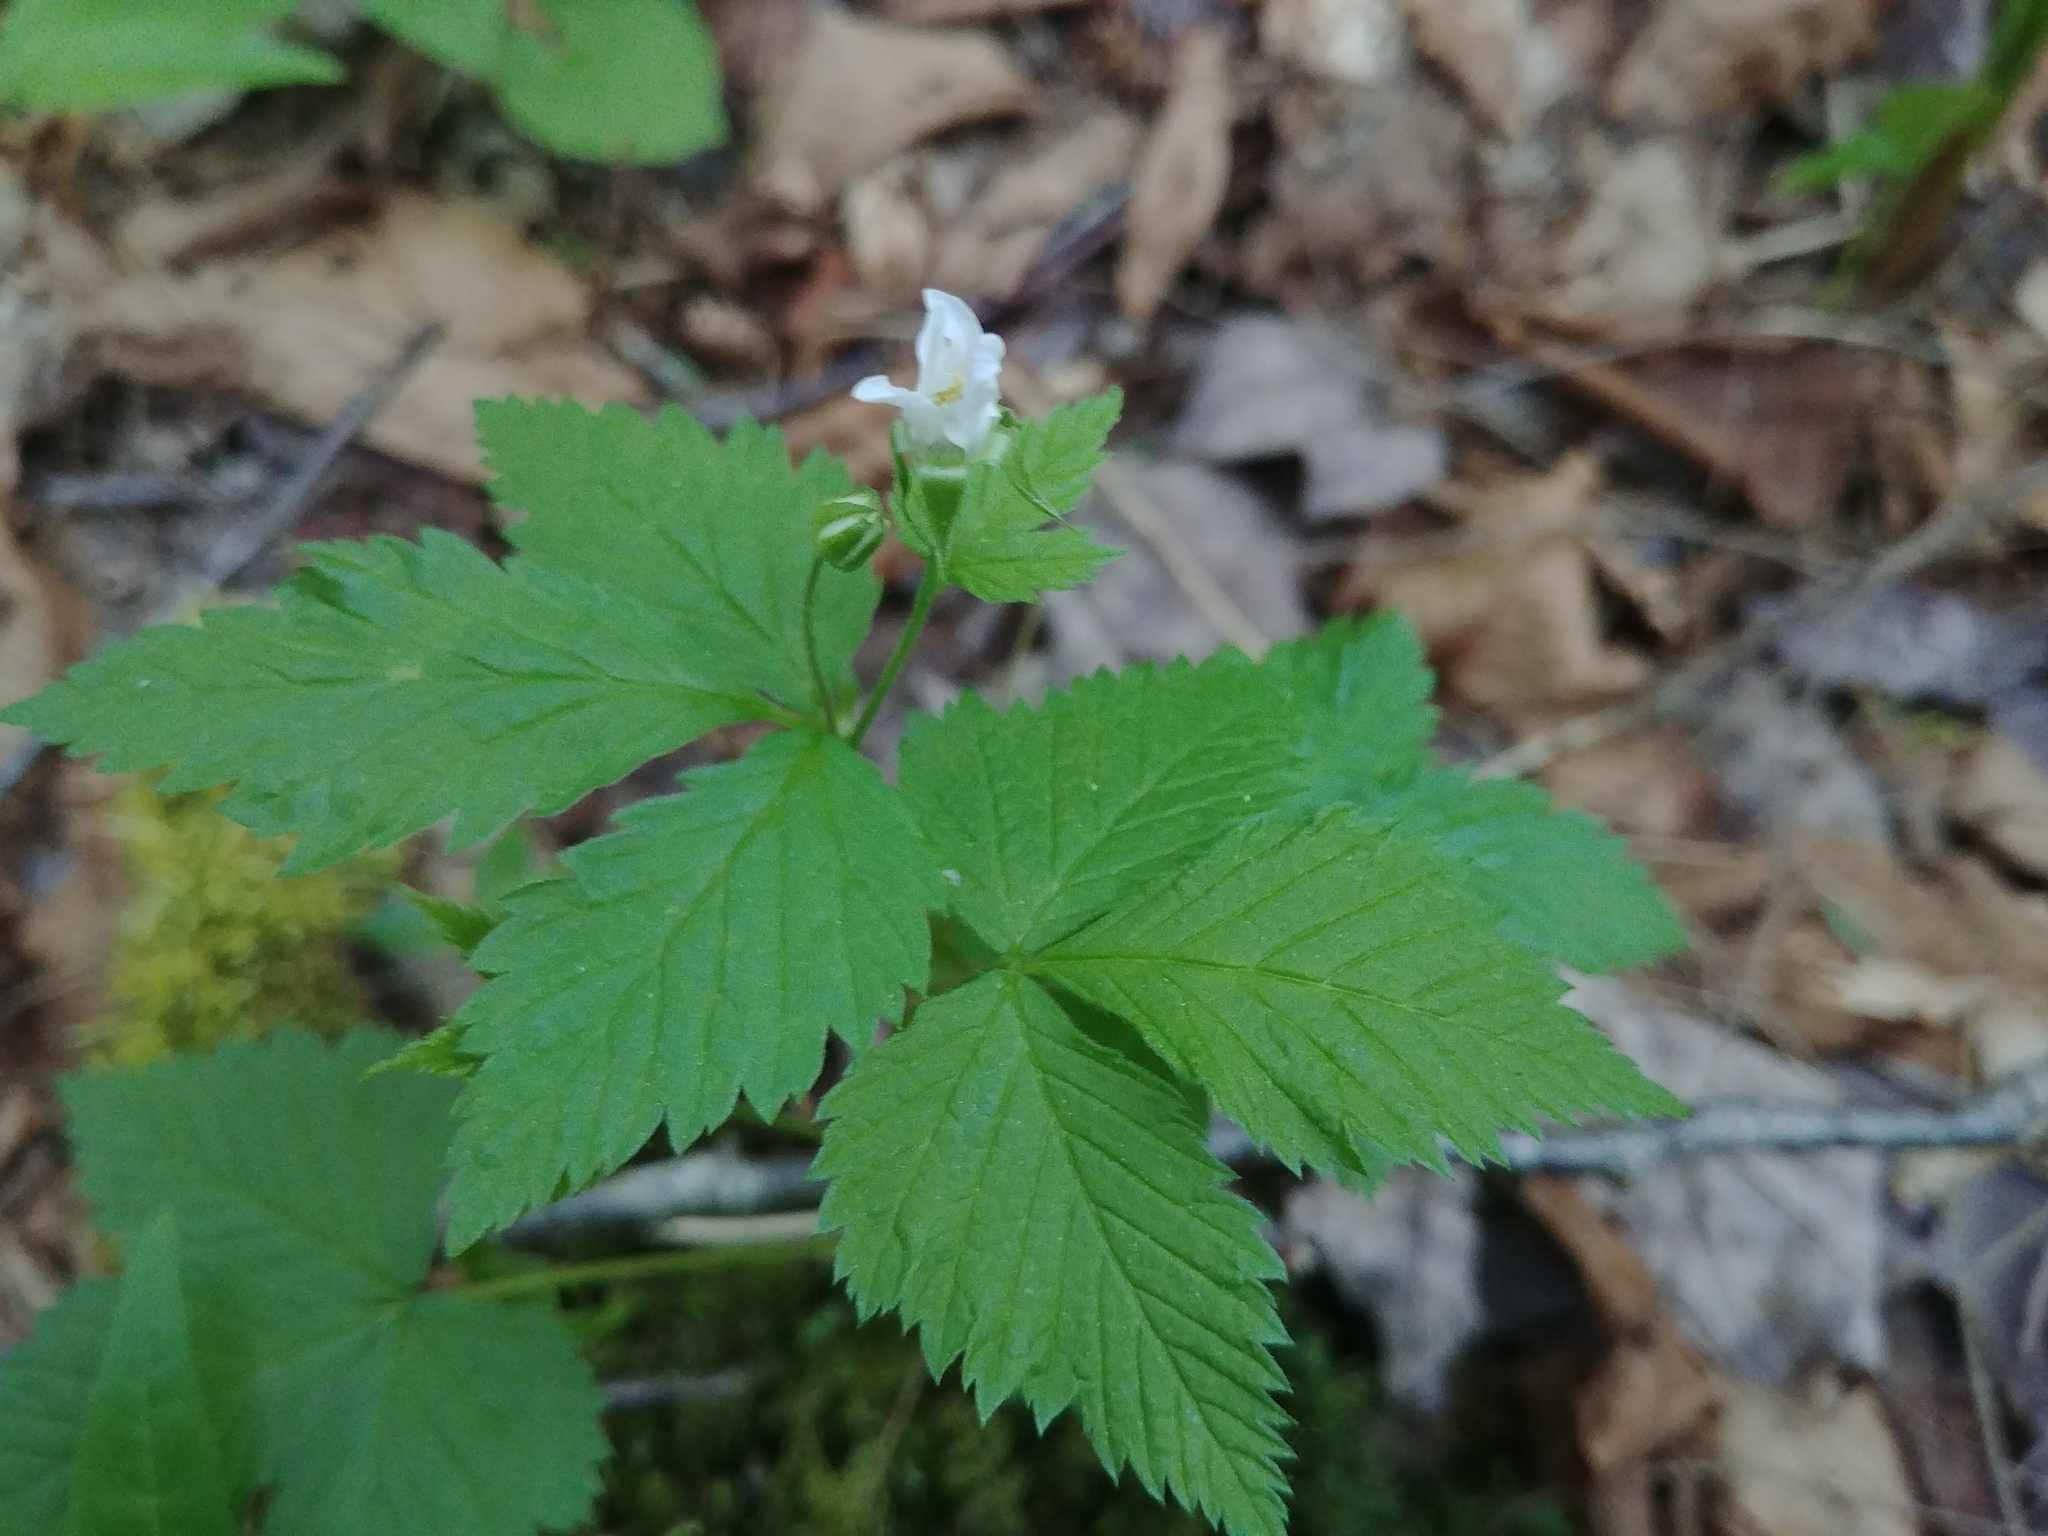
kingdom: Plantae
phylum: Tracheophyta
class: Magnoliopsida
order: Rosales
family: Rosaceae
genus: Rubus
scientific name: Rubus pubescens
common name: Dwarf raspberry
